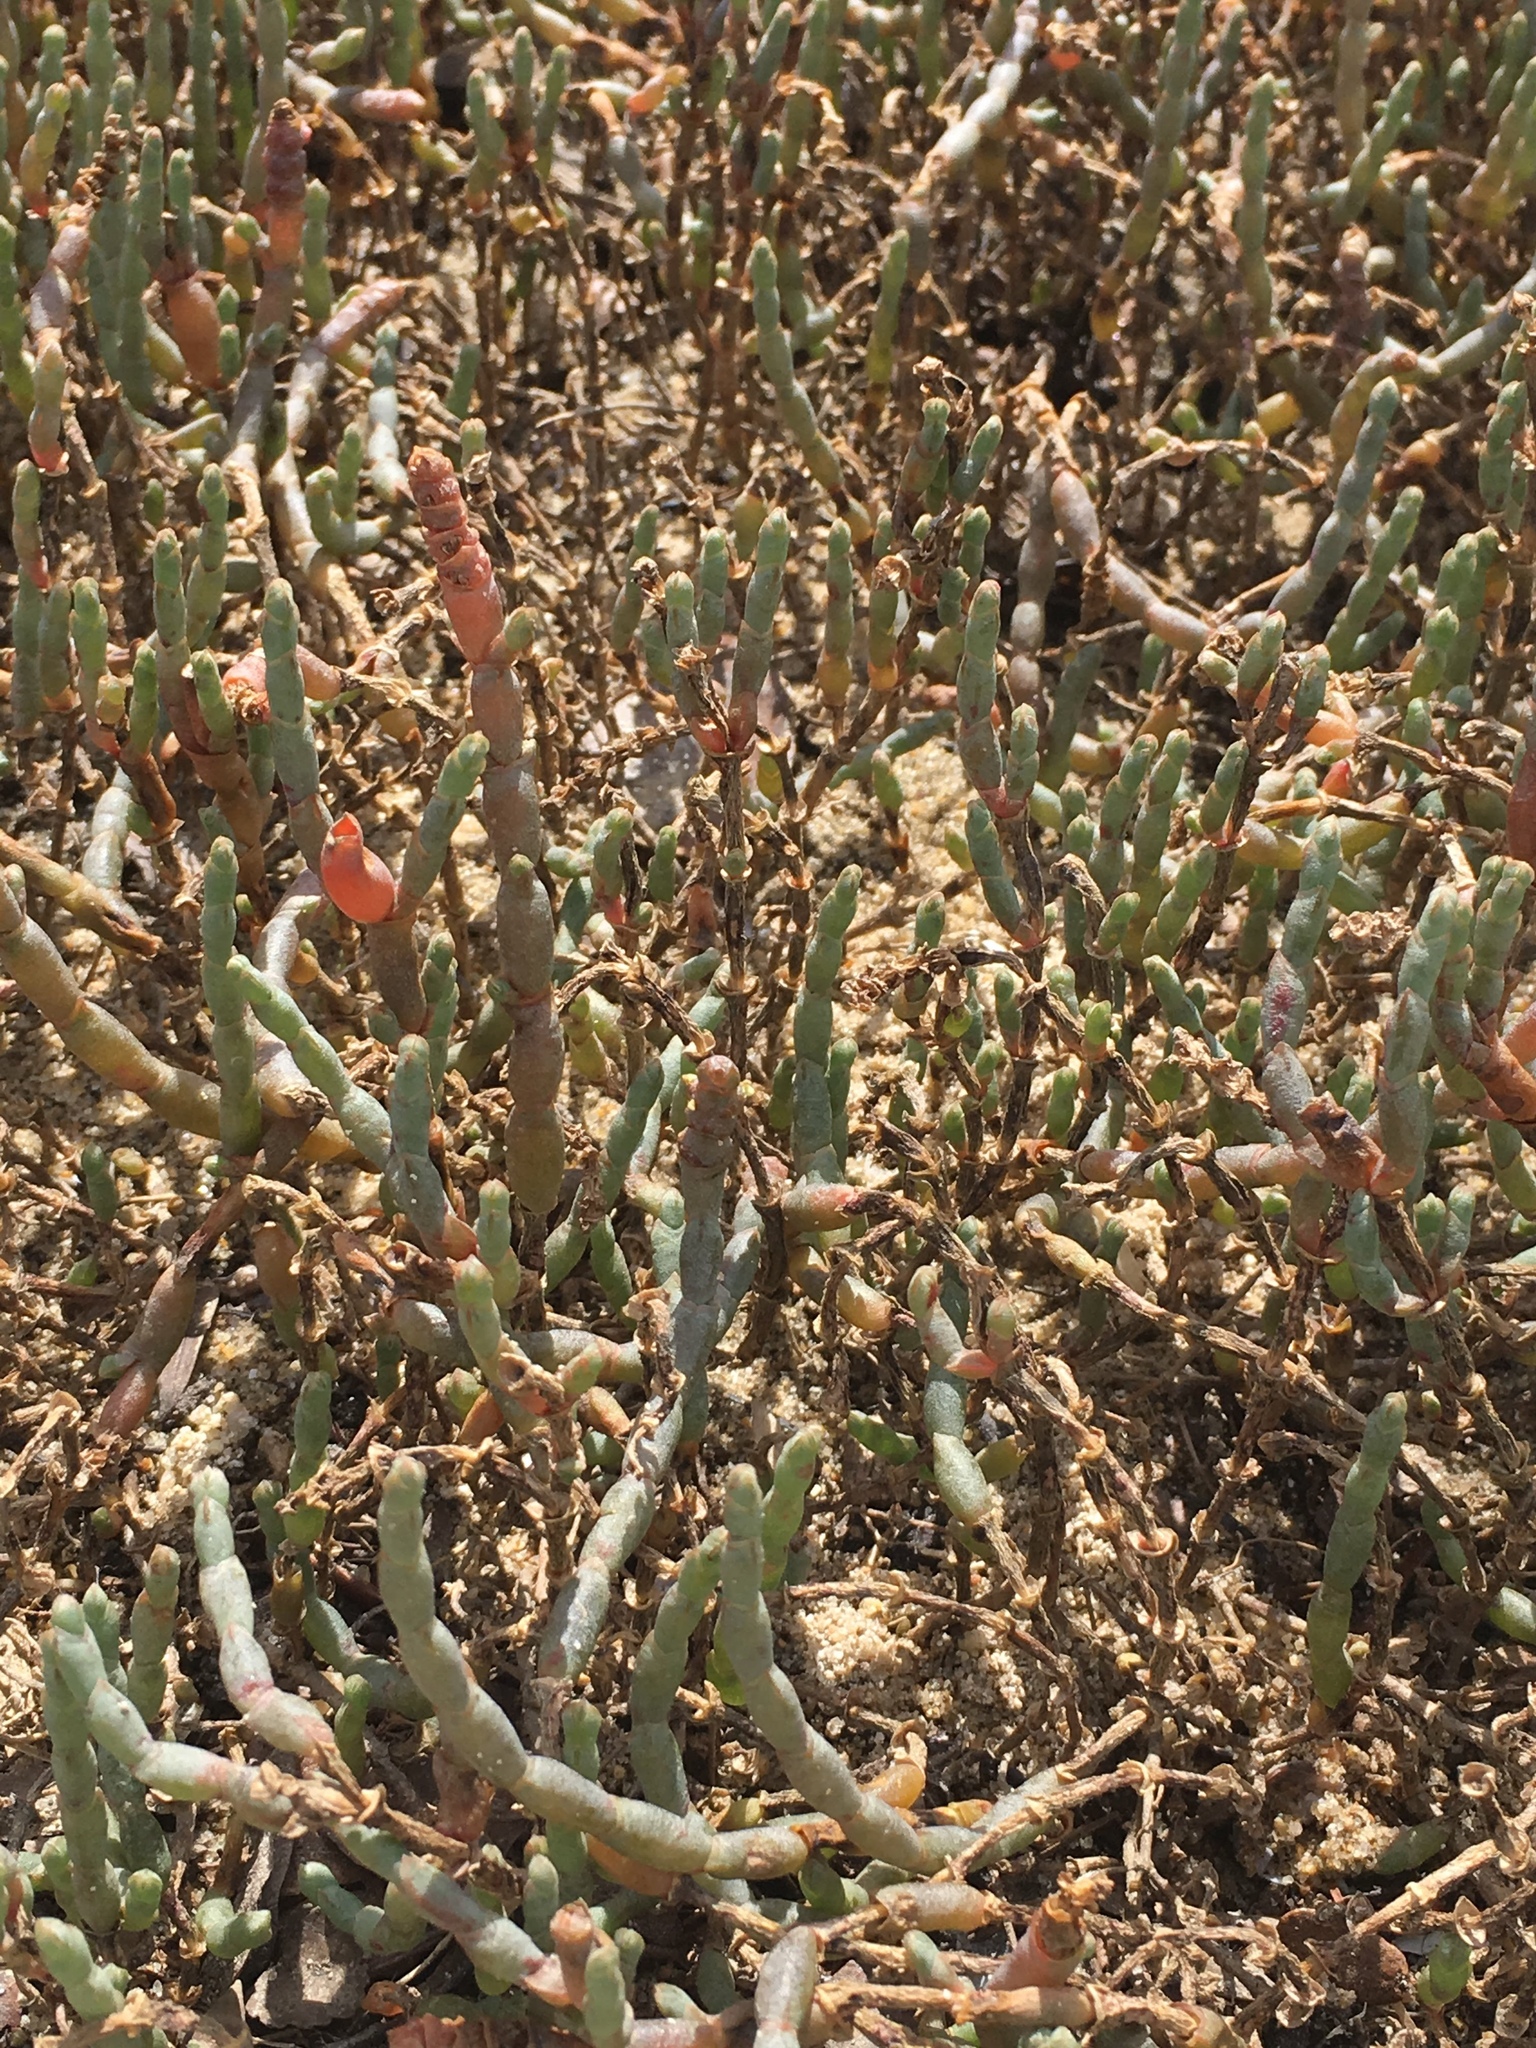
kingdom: Plantae
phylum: Tracheophyta
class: Magnoliopsida
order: Caryophyllales
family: Amaranthaceae
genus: Salicornia
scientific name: Salicornia quinqueflora
